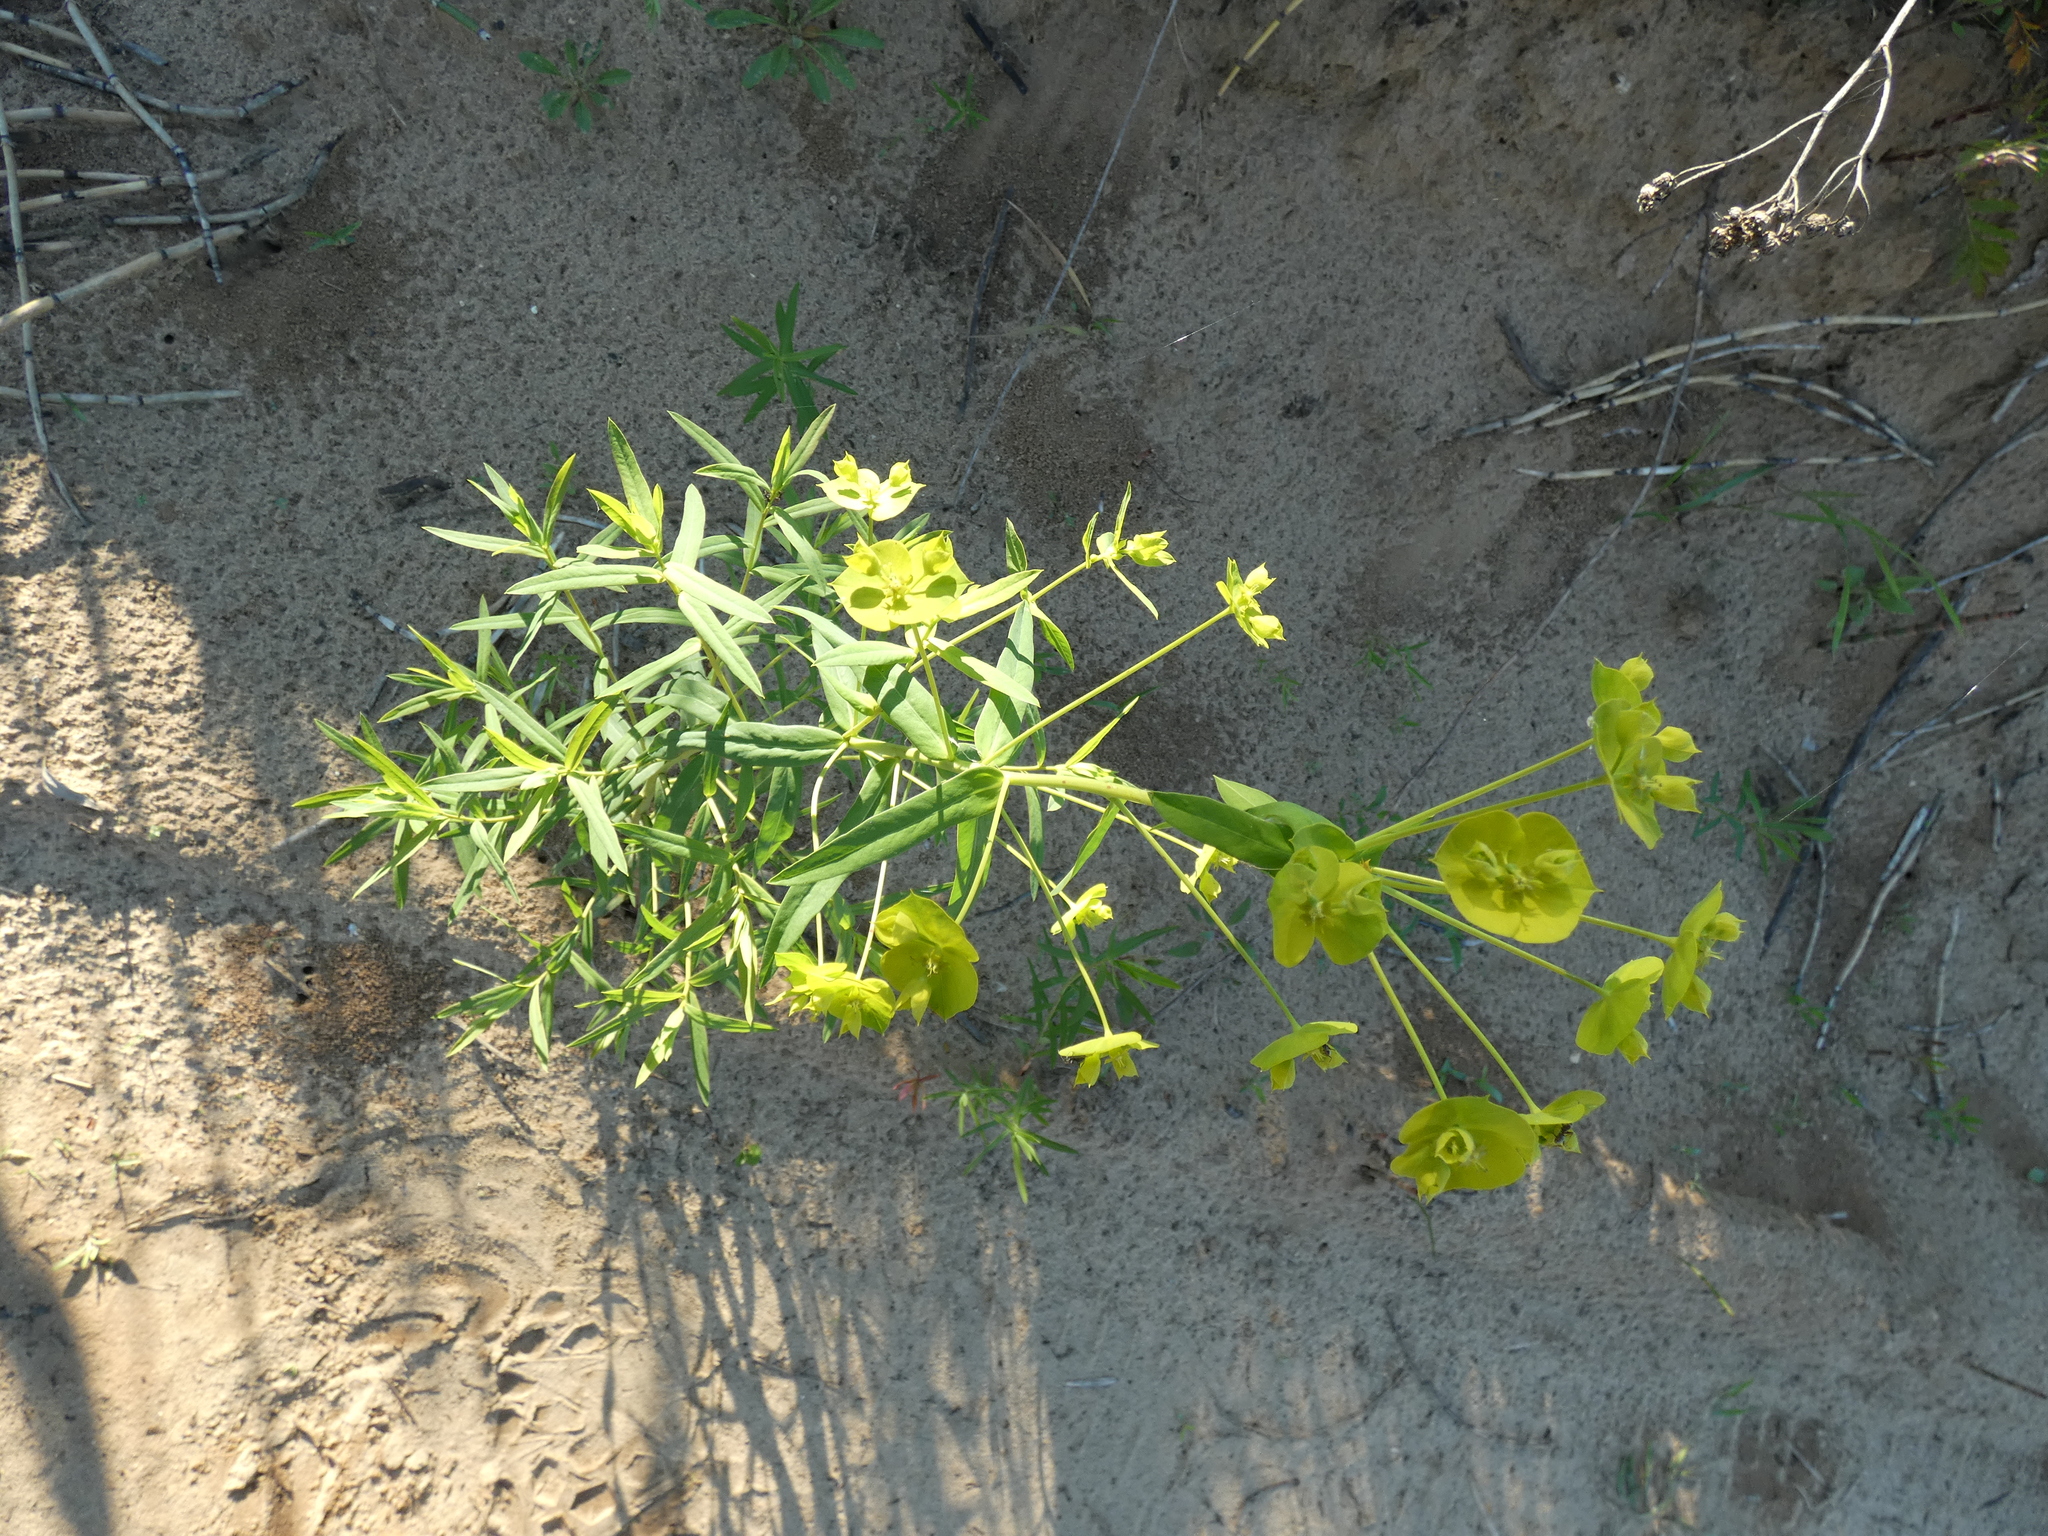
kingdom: Plantae
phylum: Tracheophyta
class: Magnoliopsida
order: Malpighiales
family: Euphorbiaceae
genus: Euphorbia
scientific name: Euphorbia virgata
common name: Leafy spurge
